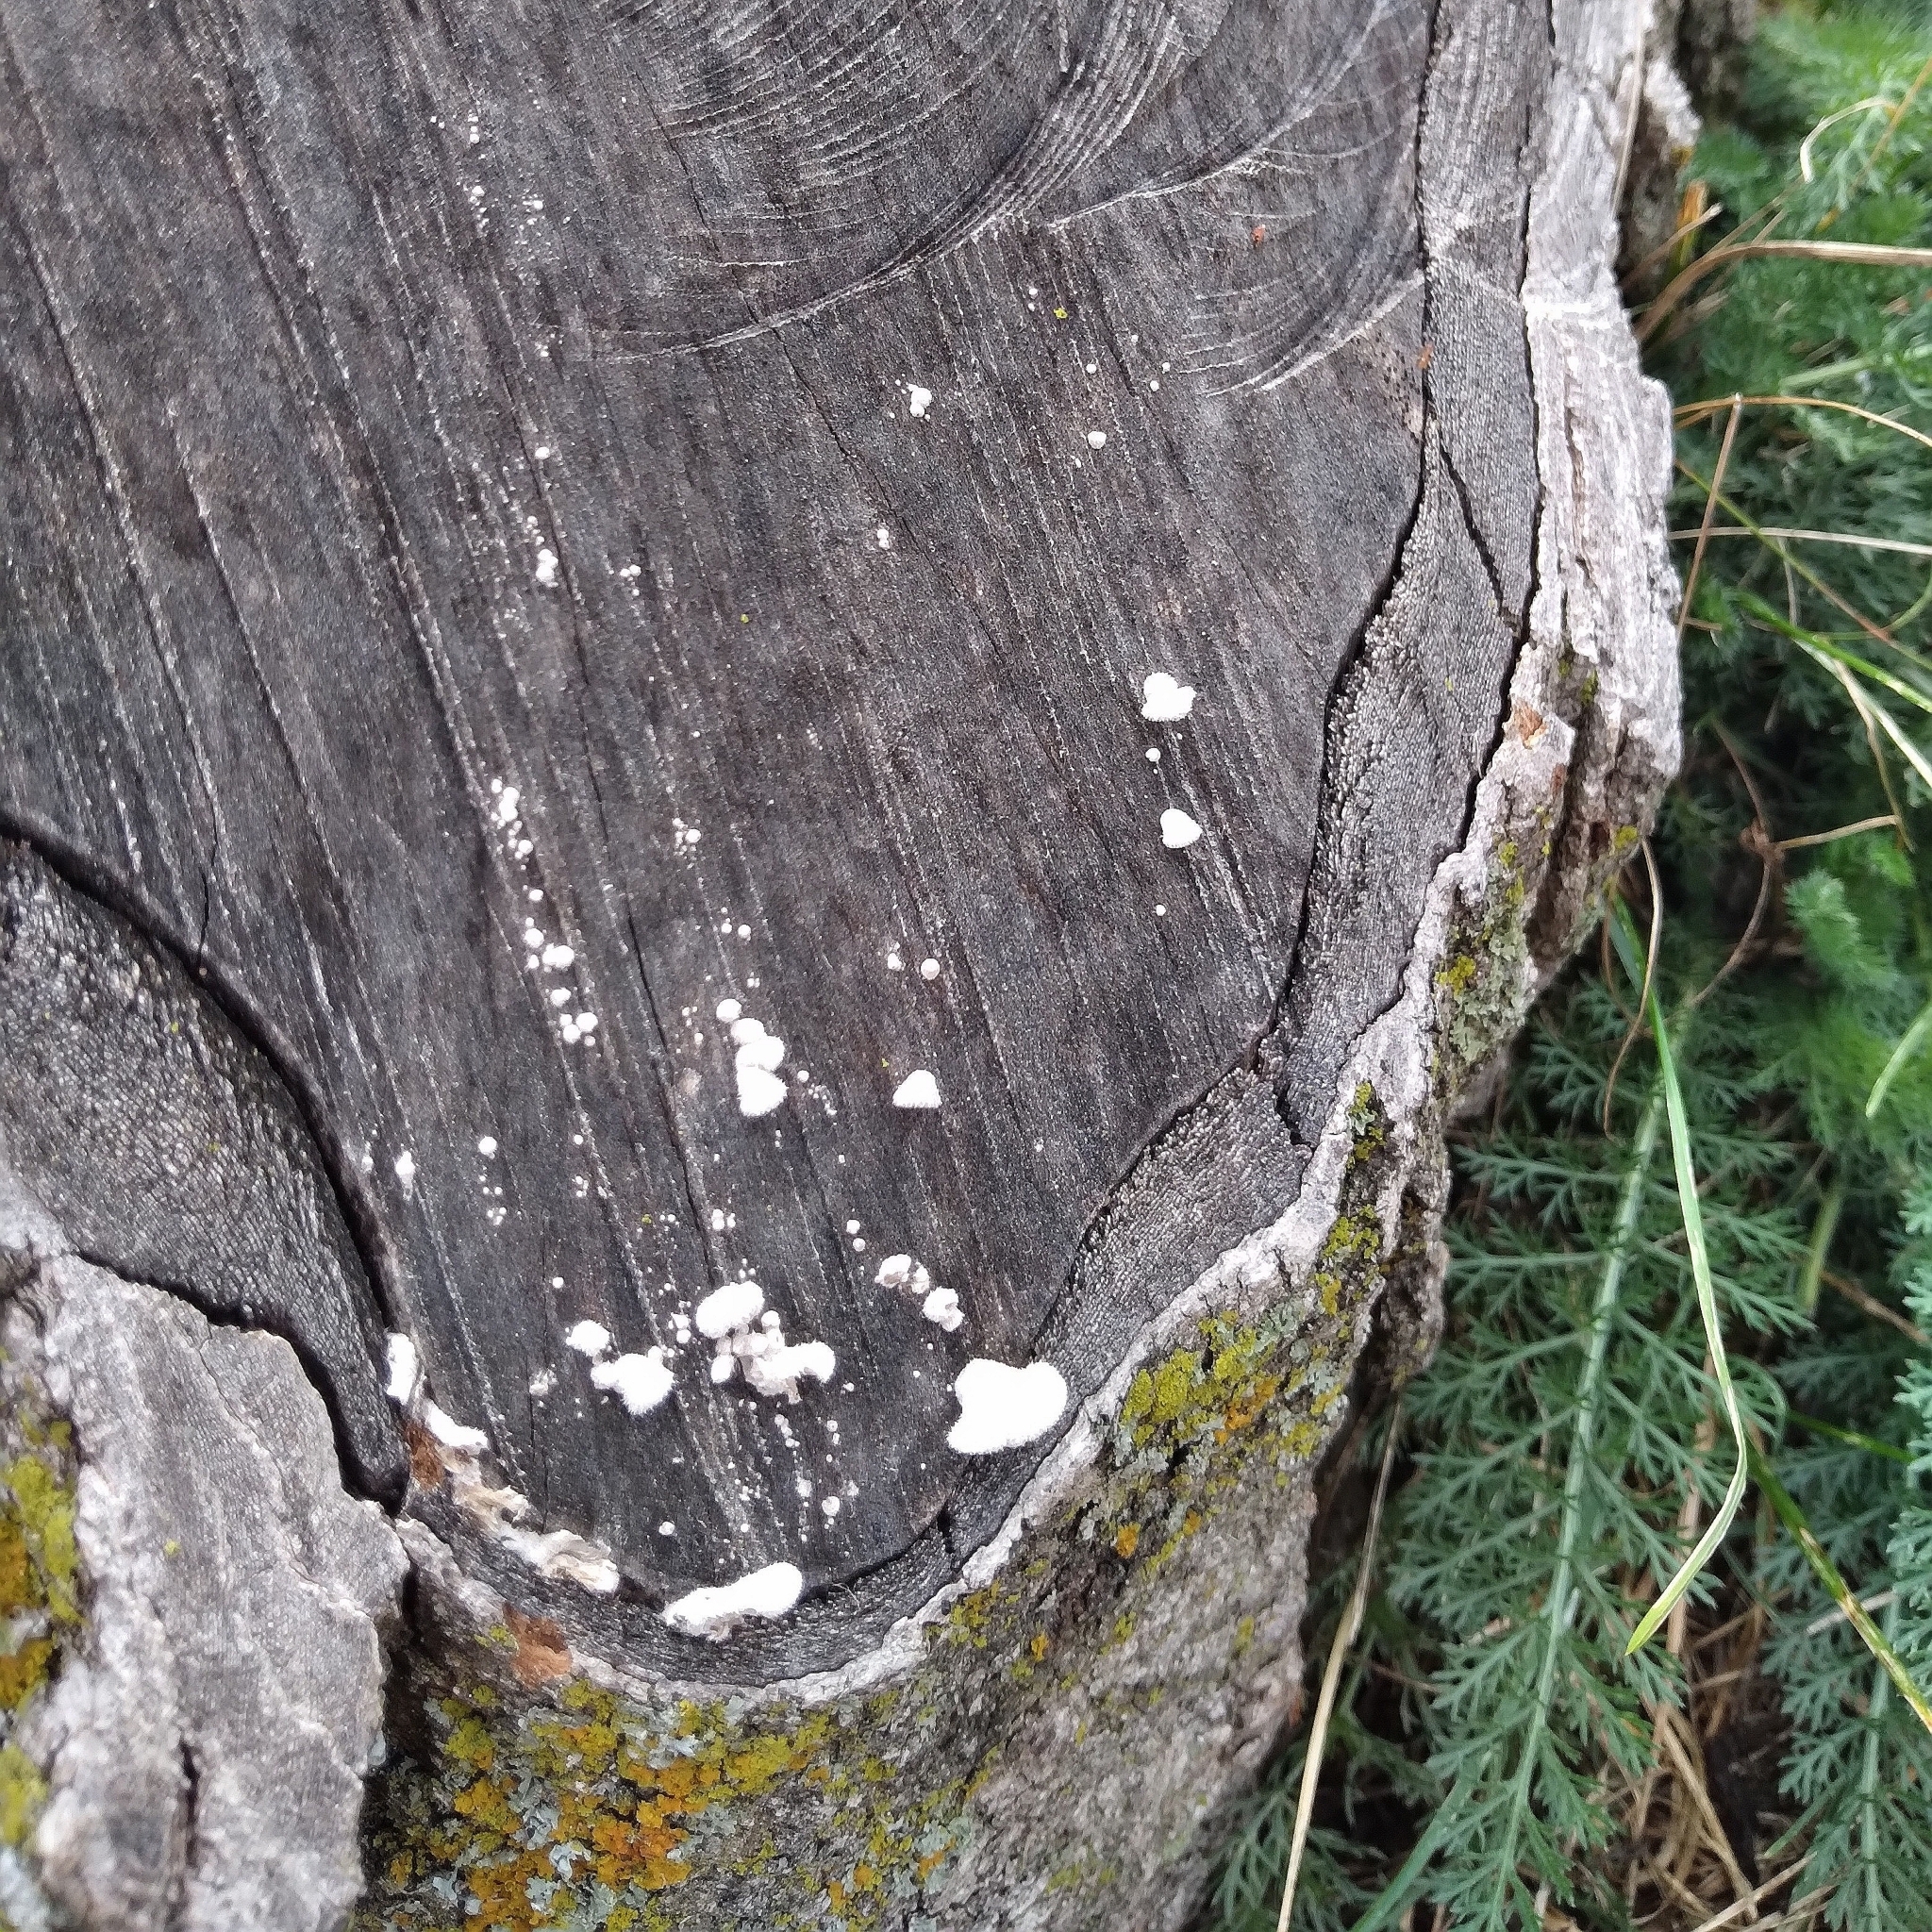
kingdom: Fungi
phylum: Basidiomycota
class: Agaricomycetes
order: Agaricales
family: Schizophyllaceae
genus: Schizophyllum
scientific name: Schizophyllum commune
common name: Common porecrust
